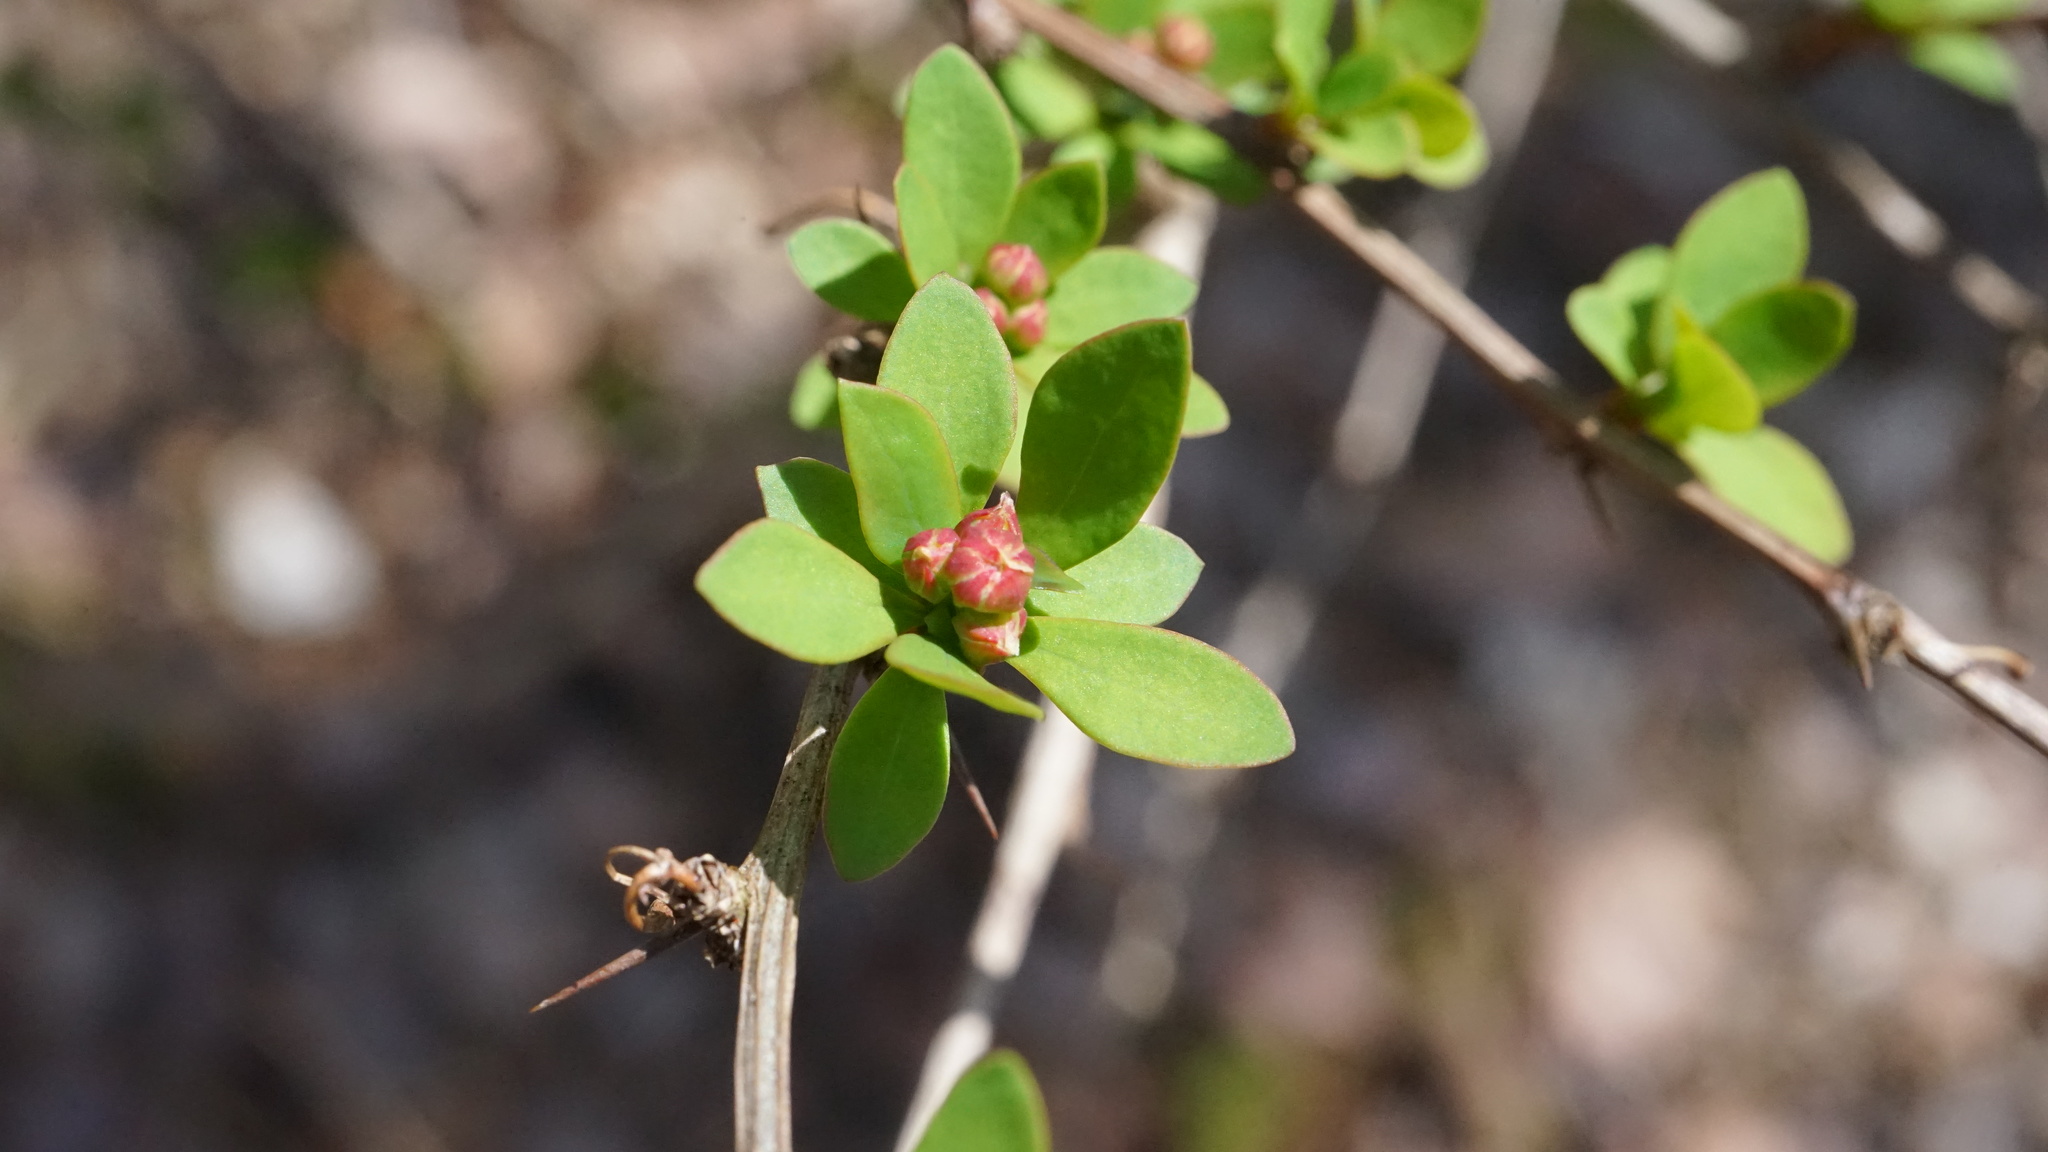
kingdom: Plantae
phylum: Tracheophyta
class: Magnoliopsida
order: Ranunculales
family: Berberidaceae
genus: Berberis
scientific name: Berberis thunbergii
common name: Japanese barberry
